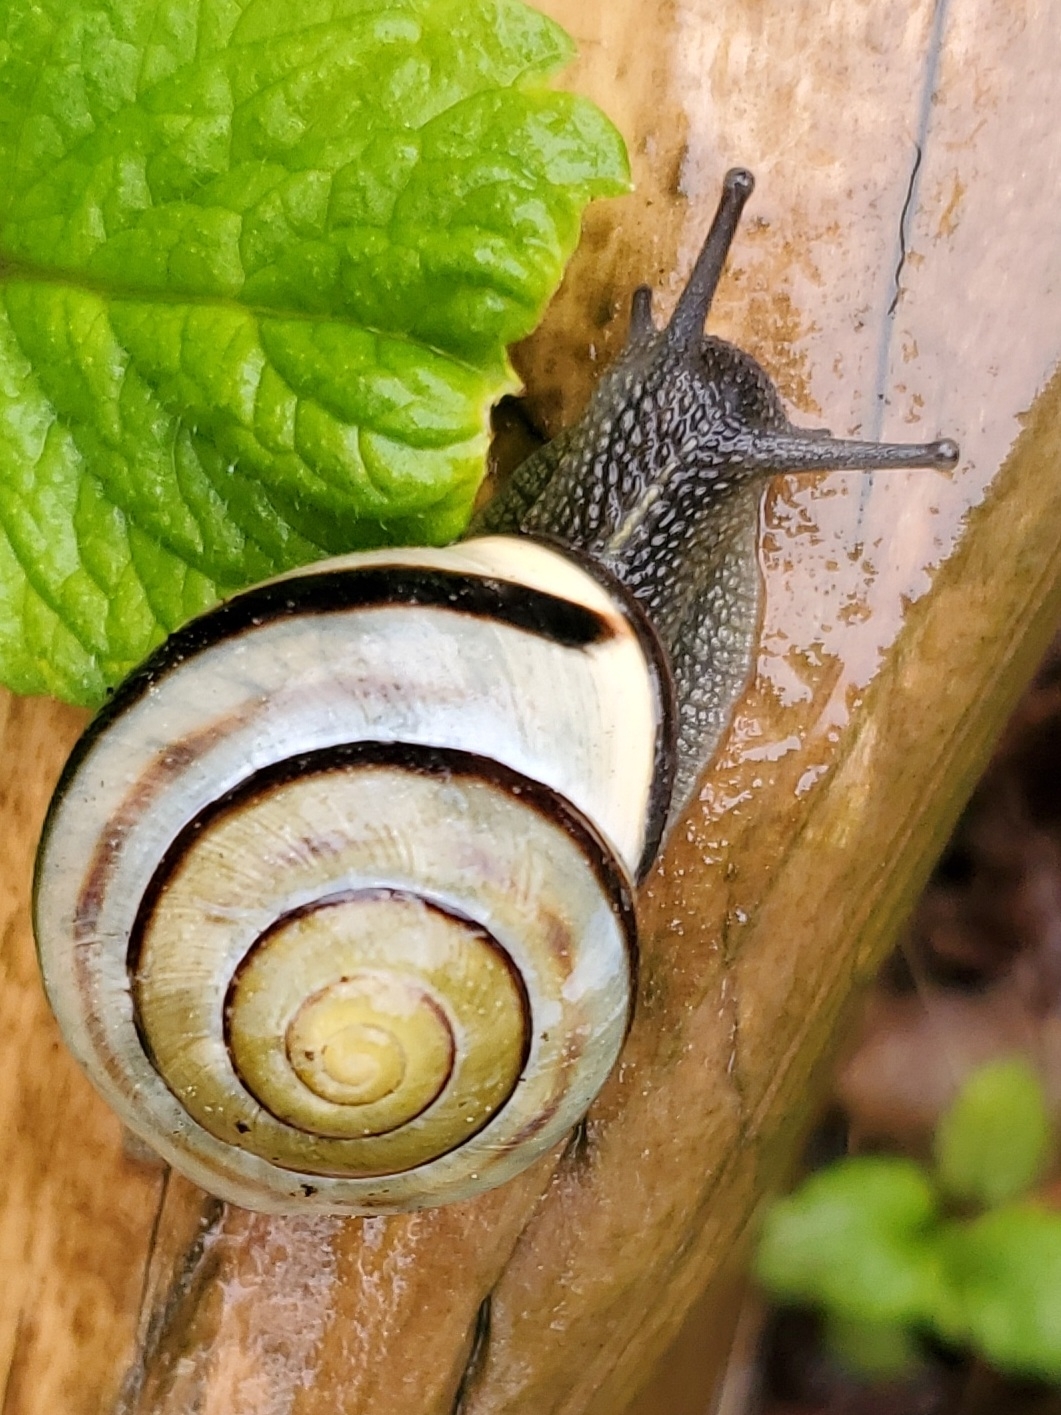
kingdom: Animalia
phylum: Mollusca
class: Gastropoda
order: Stylommatophora
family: Helicidae
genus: Cepaea
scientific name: Cepaea nemoralis
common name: Grovesnail
